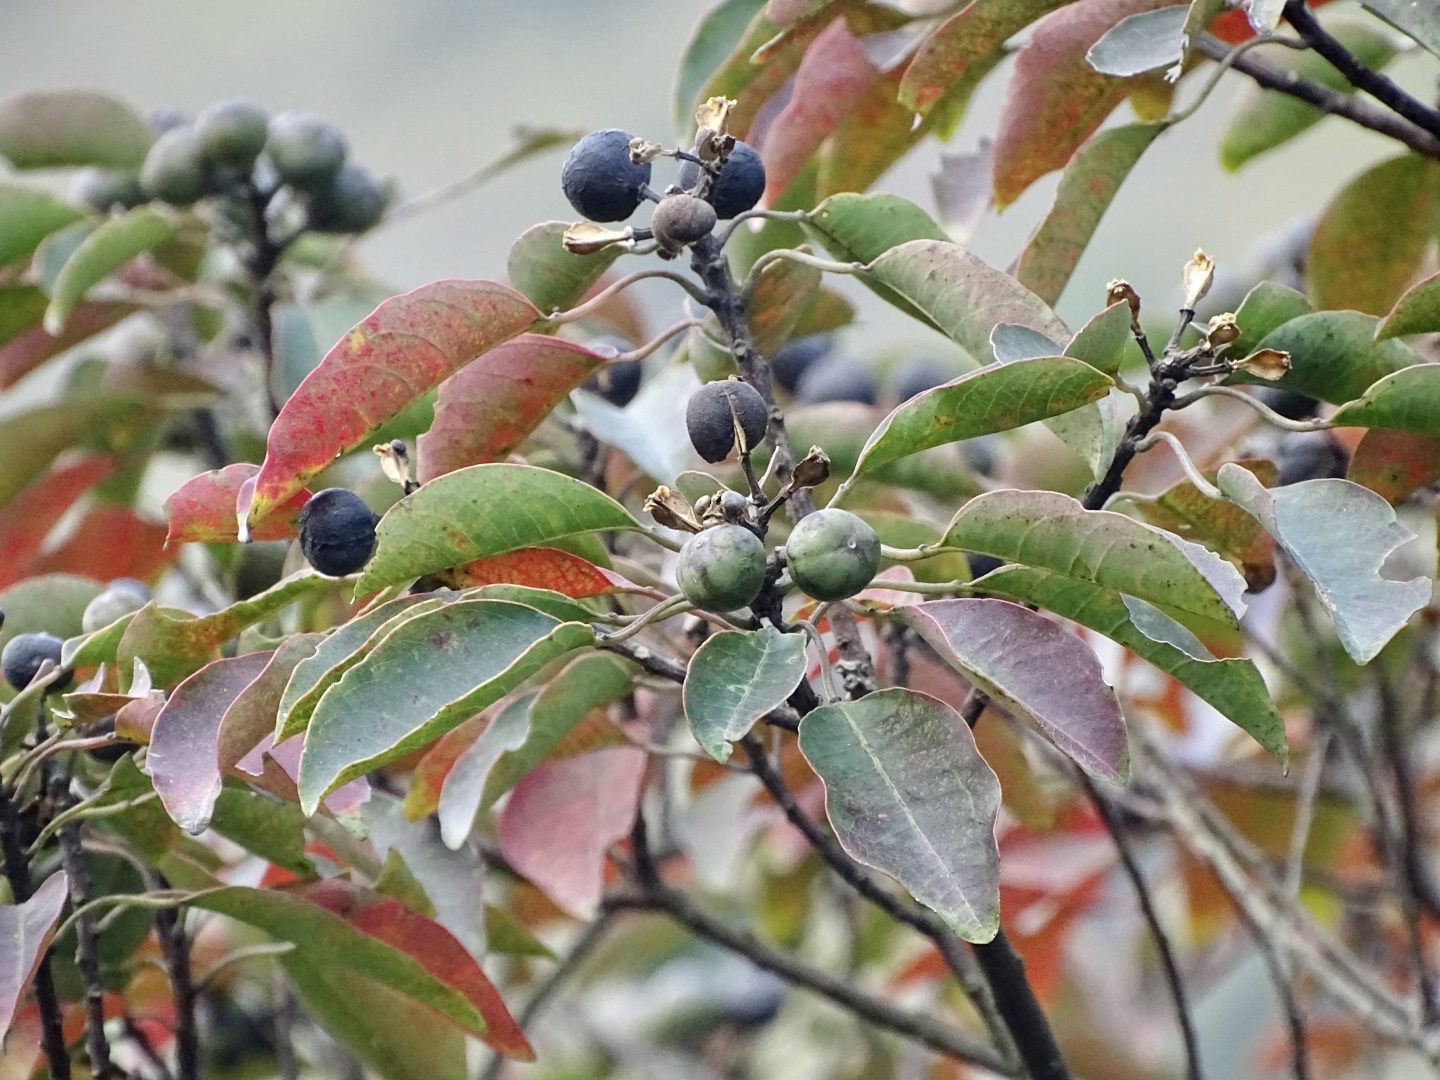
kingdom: Plantae
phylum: Tracheophyta
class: Magnoliopsida
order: Malpighiales
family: Euphorbiaceae
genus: Triadica
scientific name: Triadica cochinchinensis
